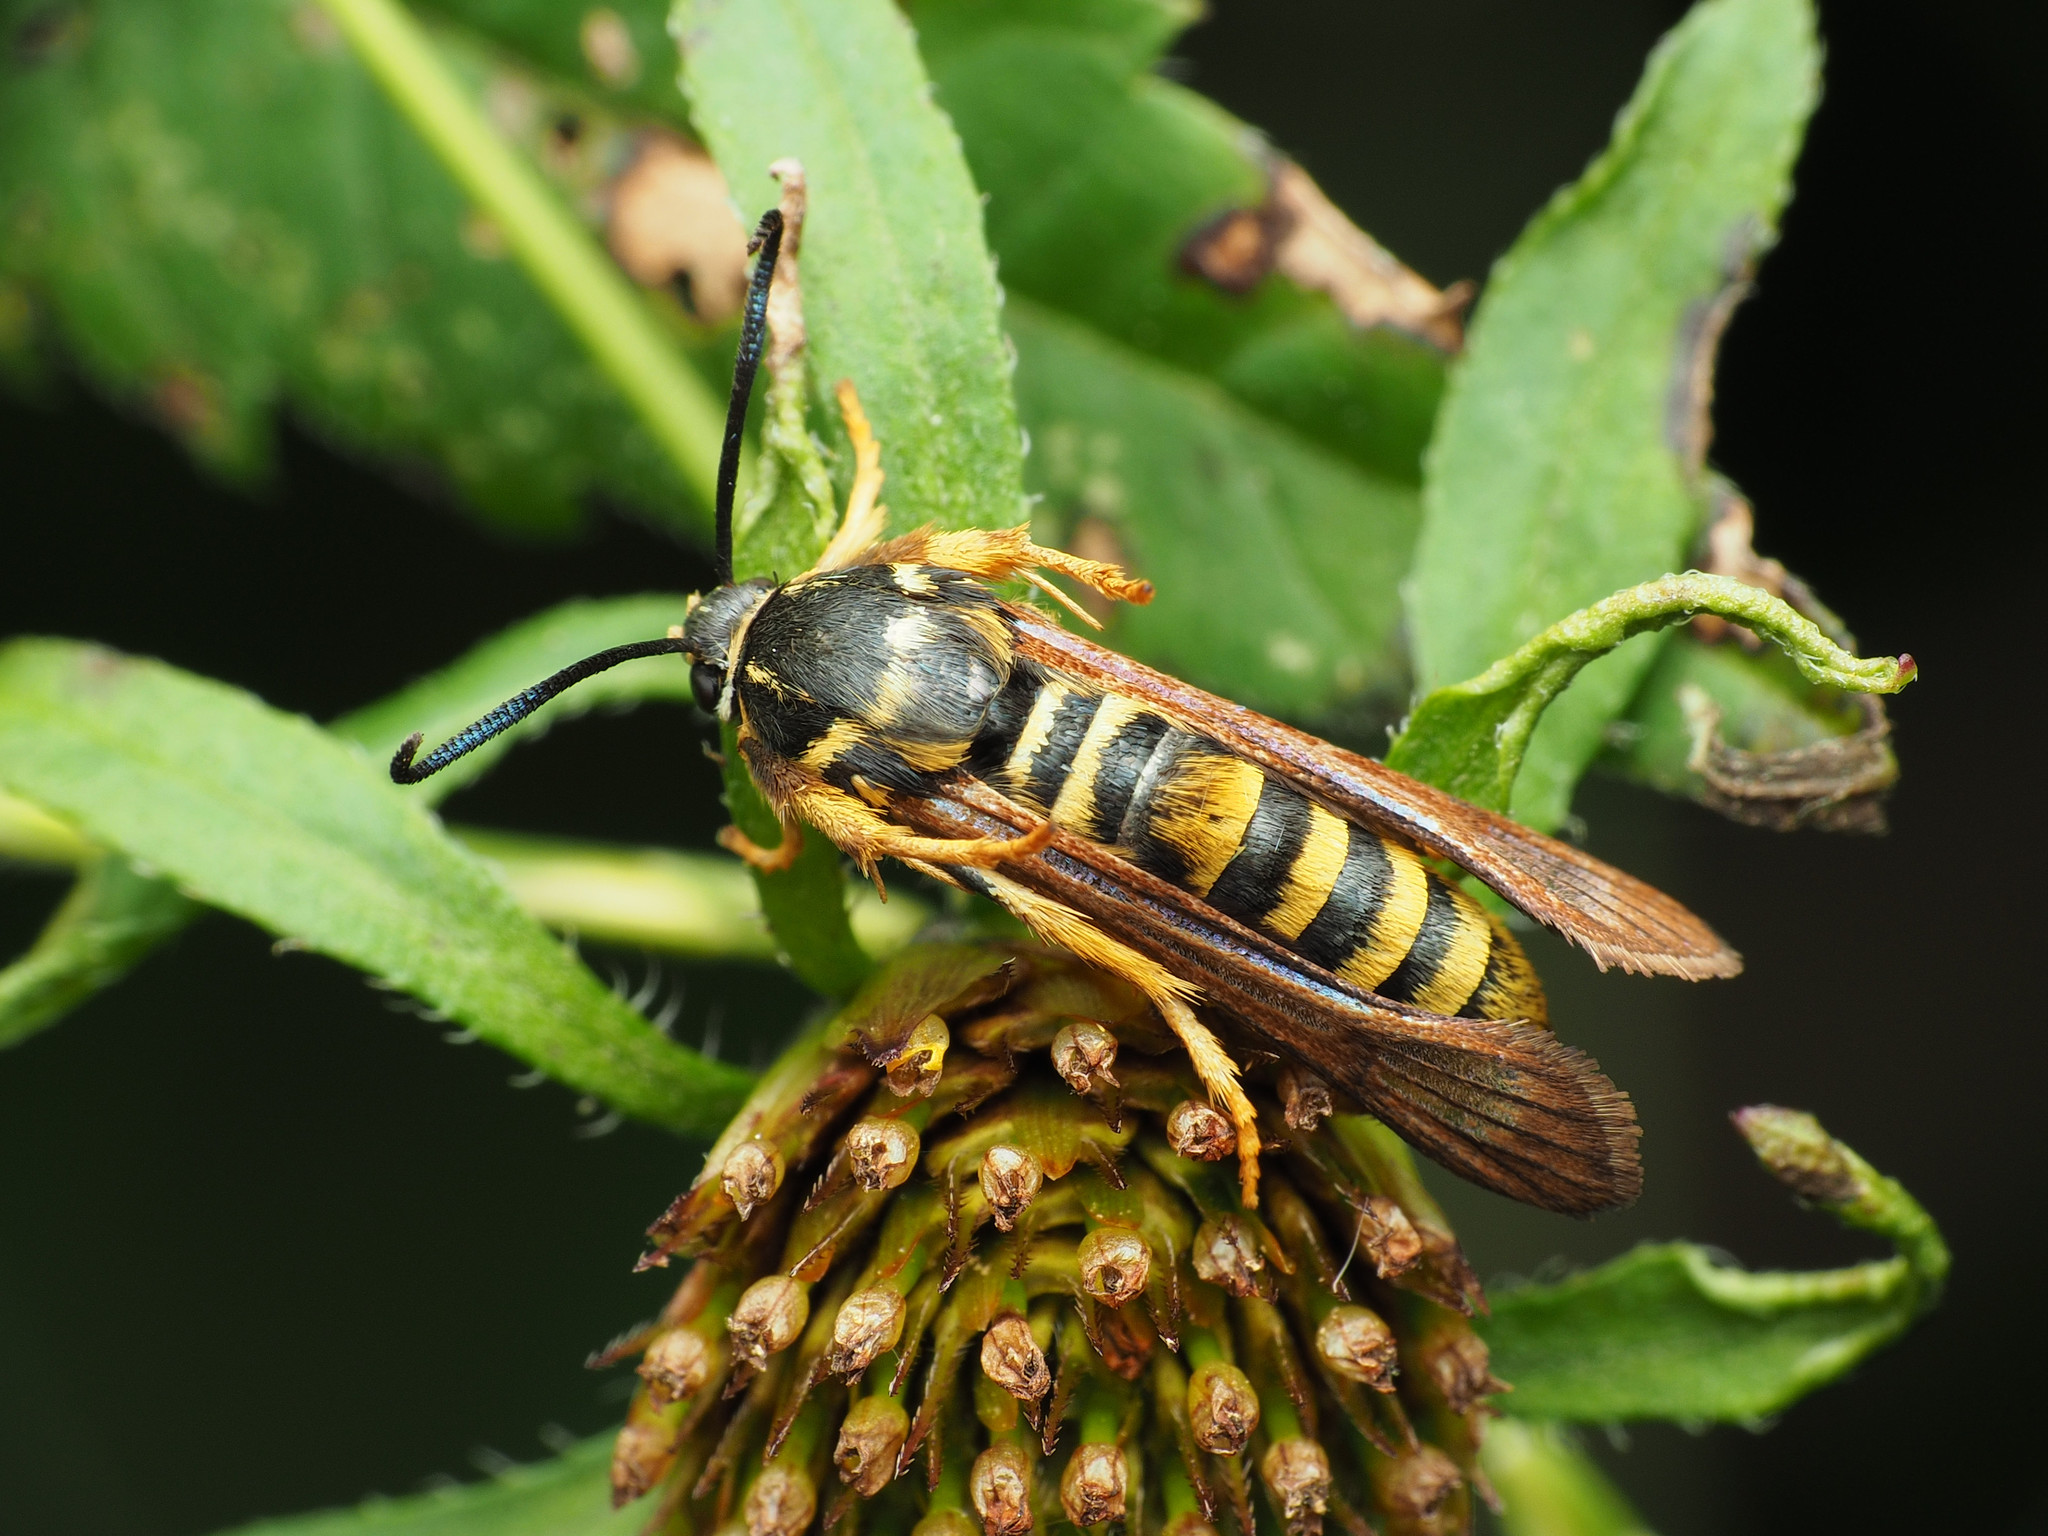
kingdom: Animalia
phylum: Arthropoda
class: Insecta
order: Lepidoptera
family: Sesiidae
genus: Pennisetia
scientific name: Pennisetia marginatum
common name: Raspberry crown borer
